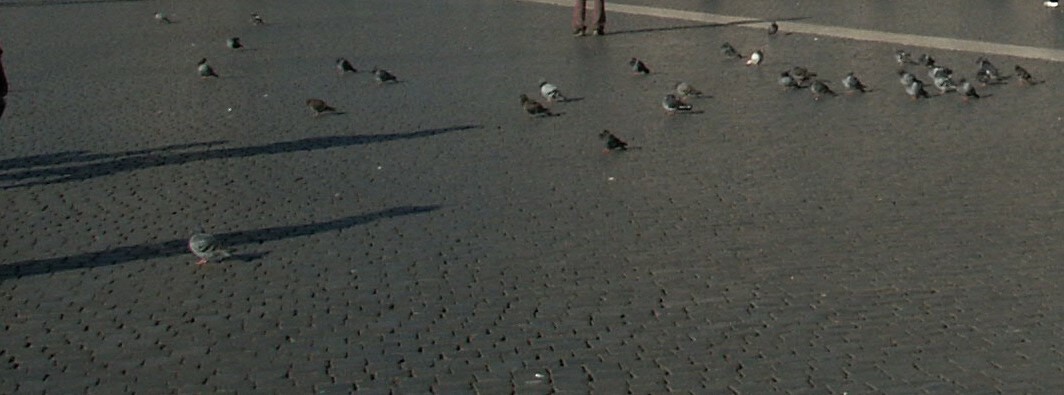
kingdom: Animalia
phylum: Chordata
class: Aves
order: Columbiformes
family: Columbidae
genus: Columba
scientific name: Columba livia
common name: Rock pigeon
